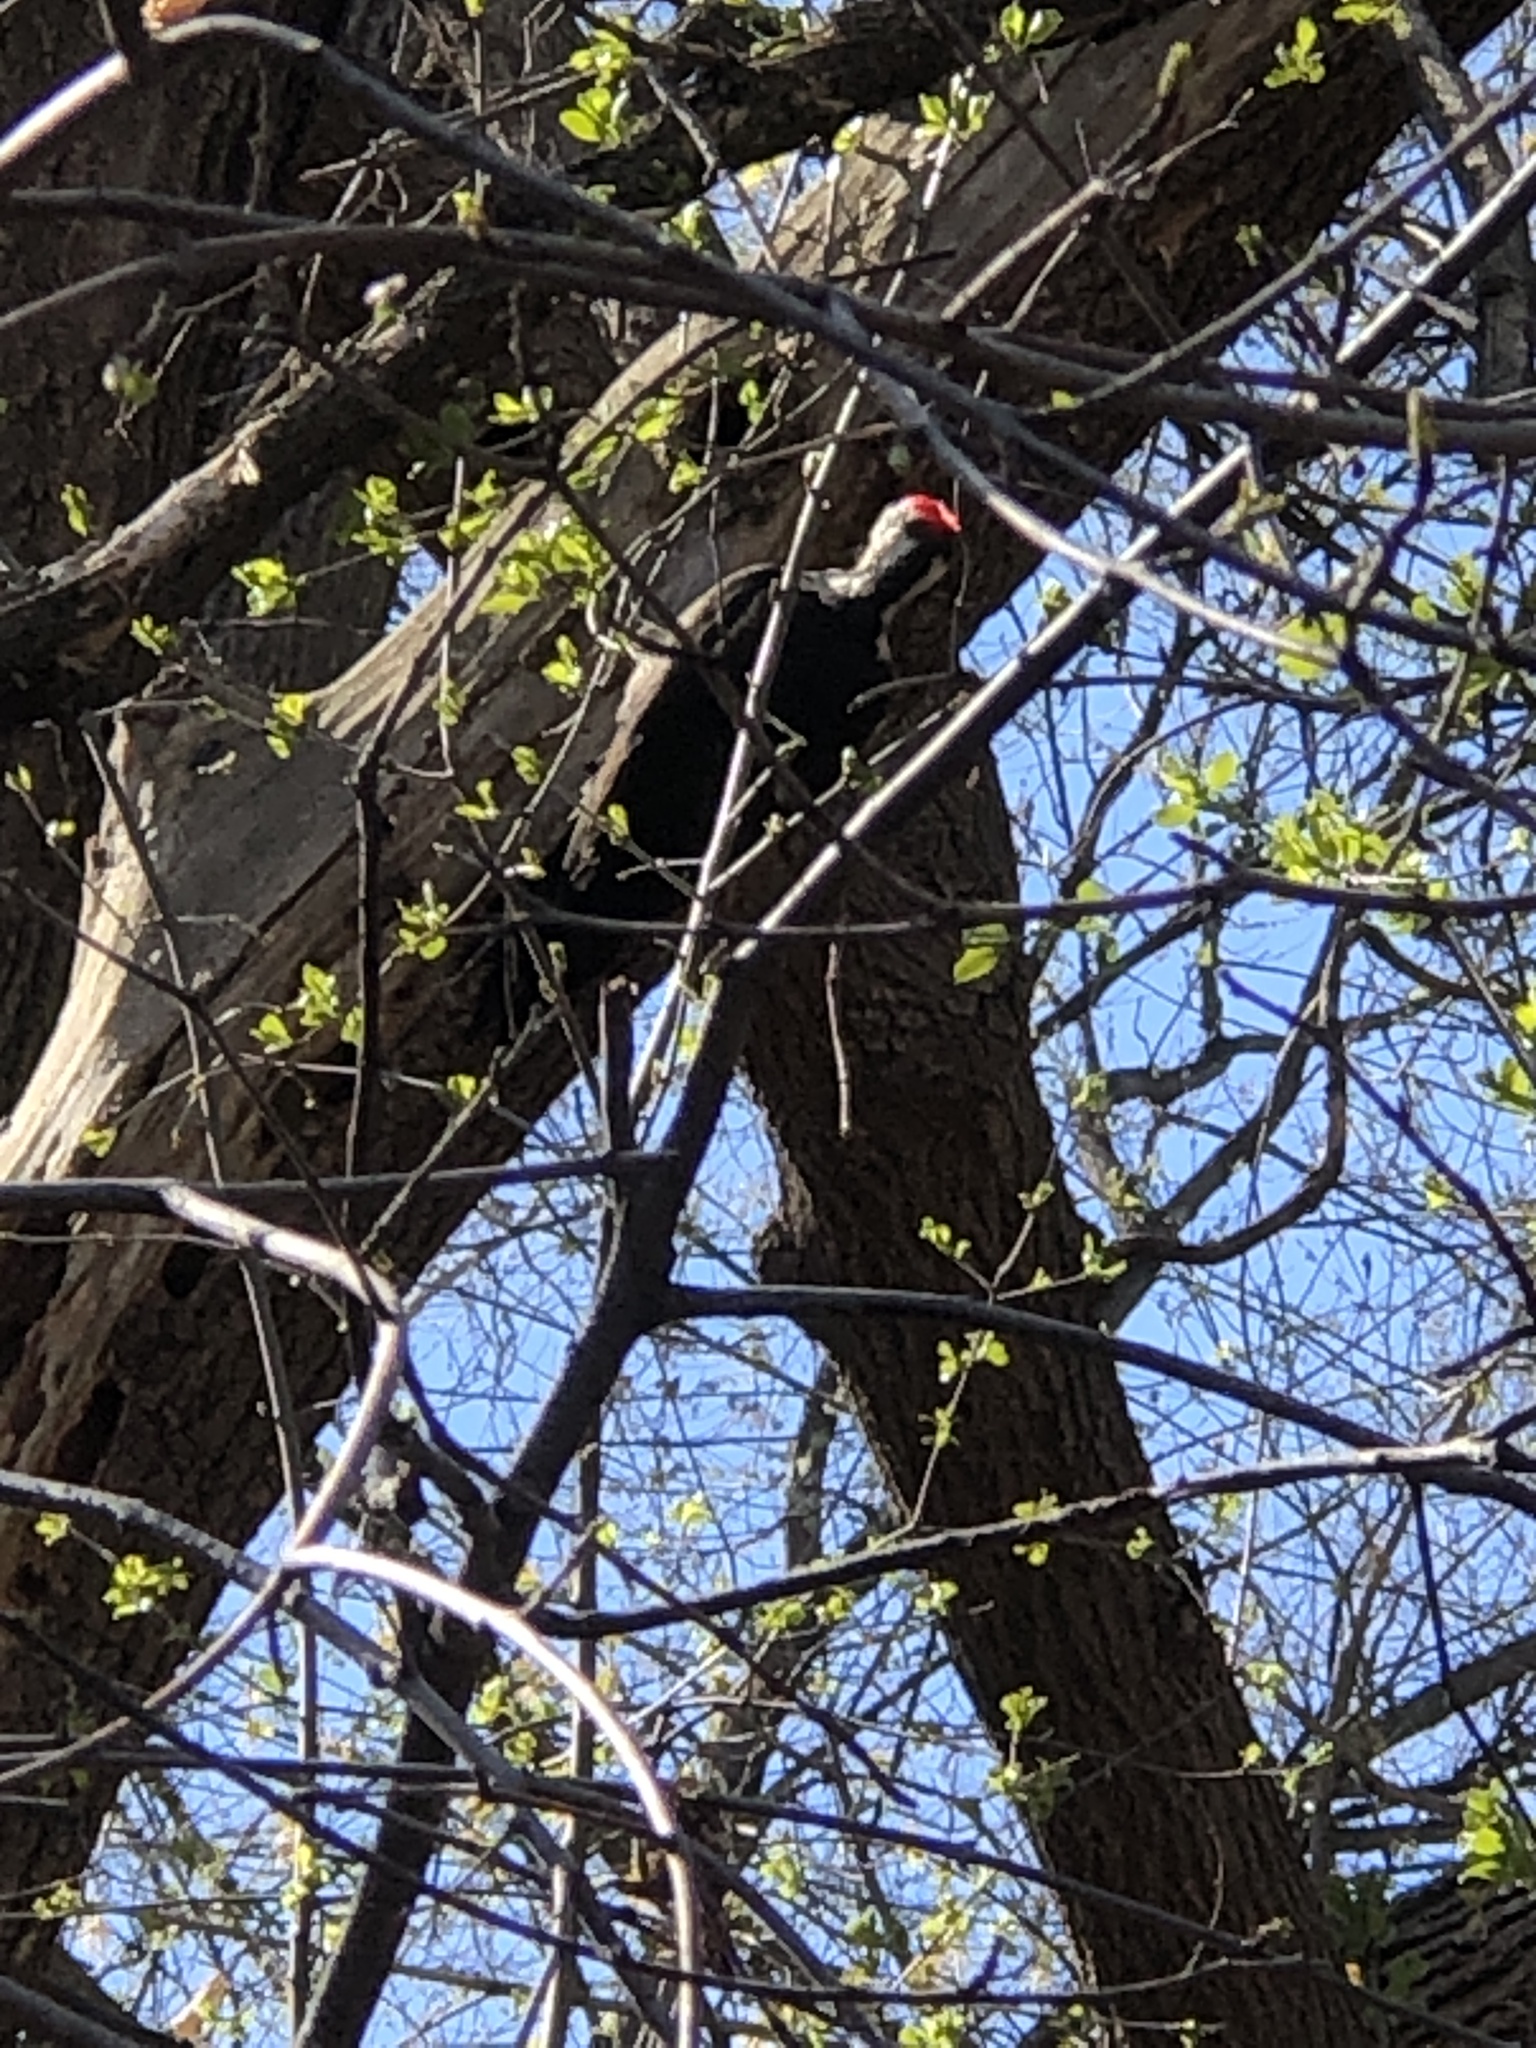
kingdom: Animalia
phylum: Chordata
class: Aves
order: Piciformes
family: Picidae
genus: Dryocopus
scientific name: Dryocopus pileatus
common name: Pileated woodpecker
